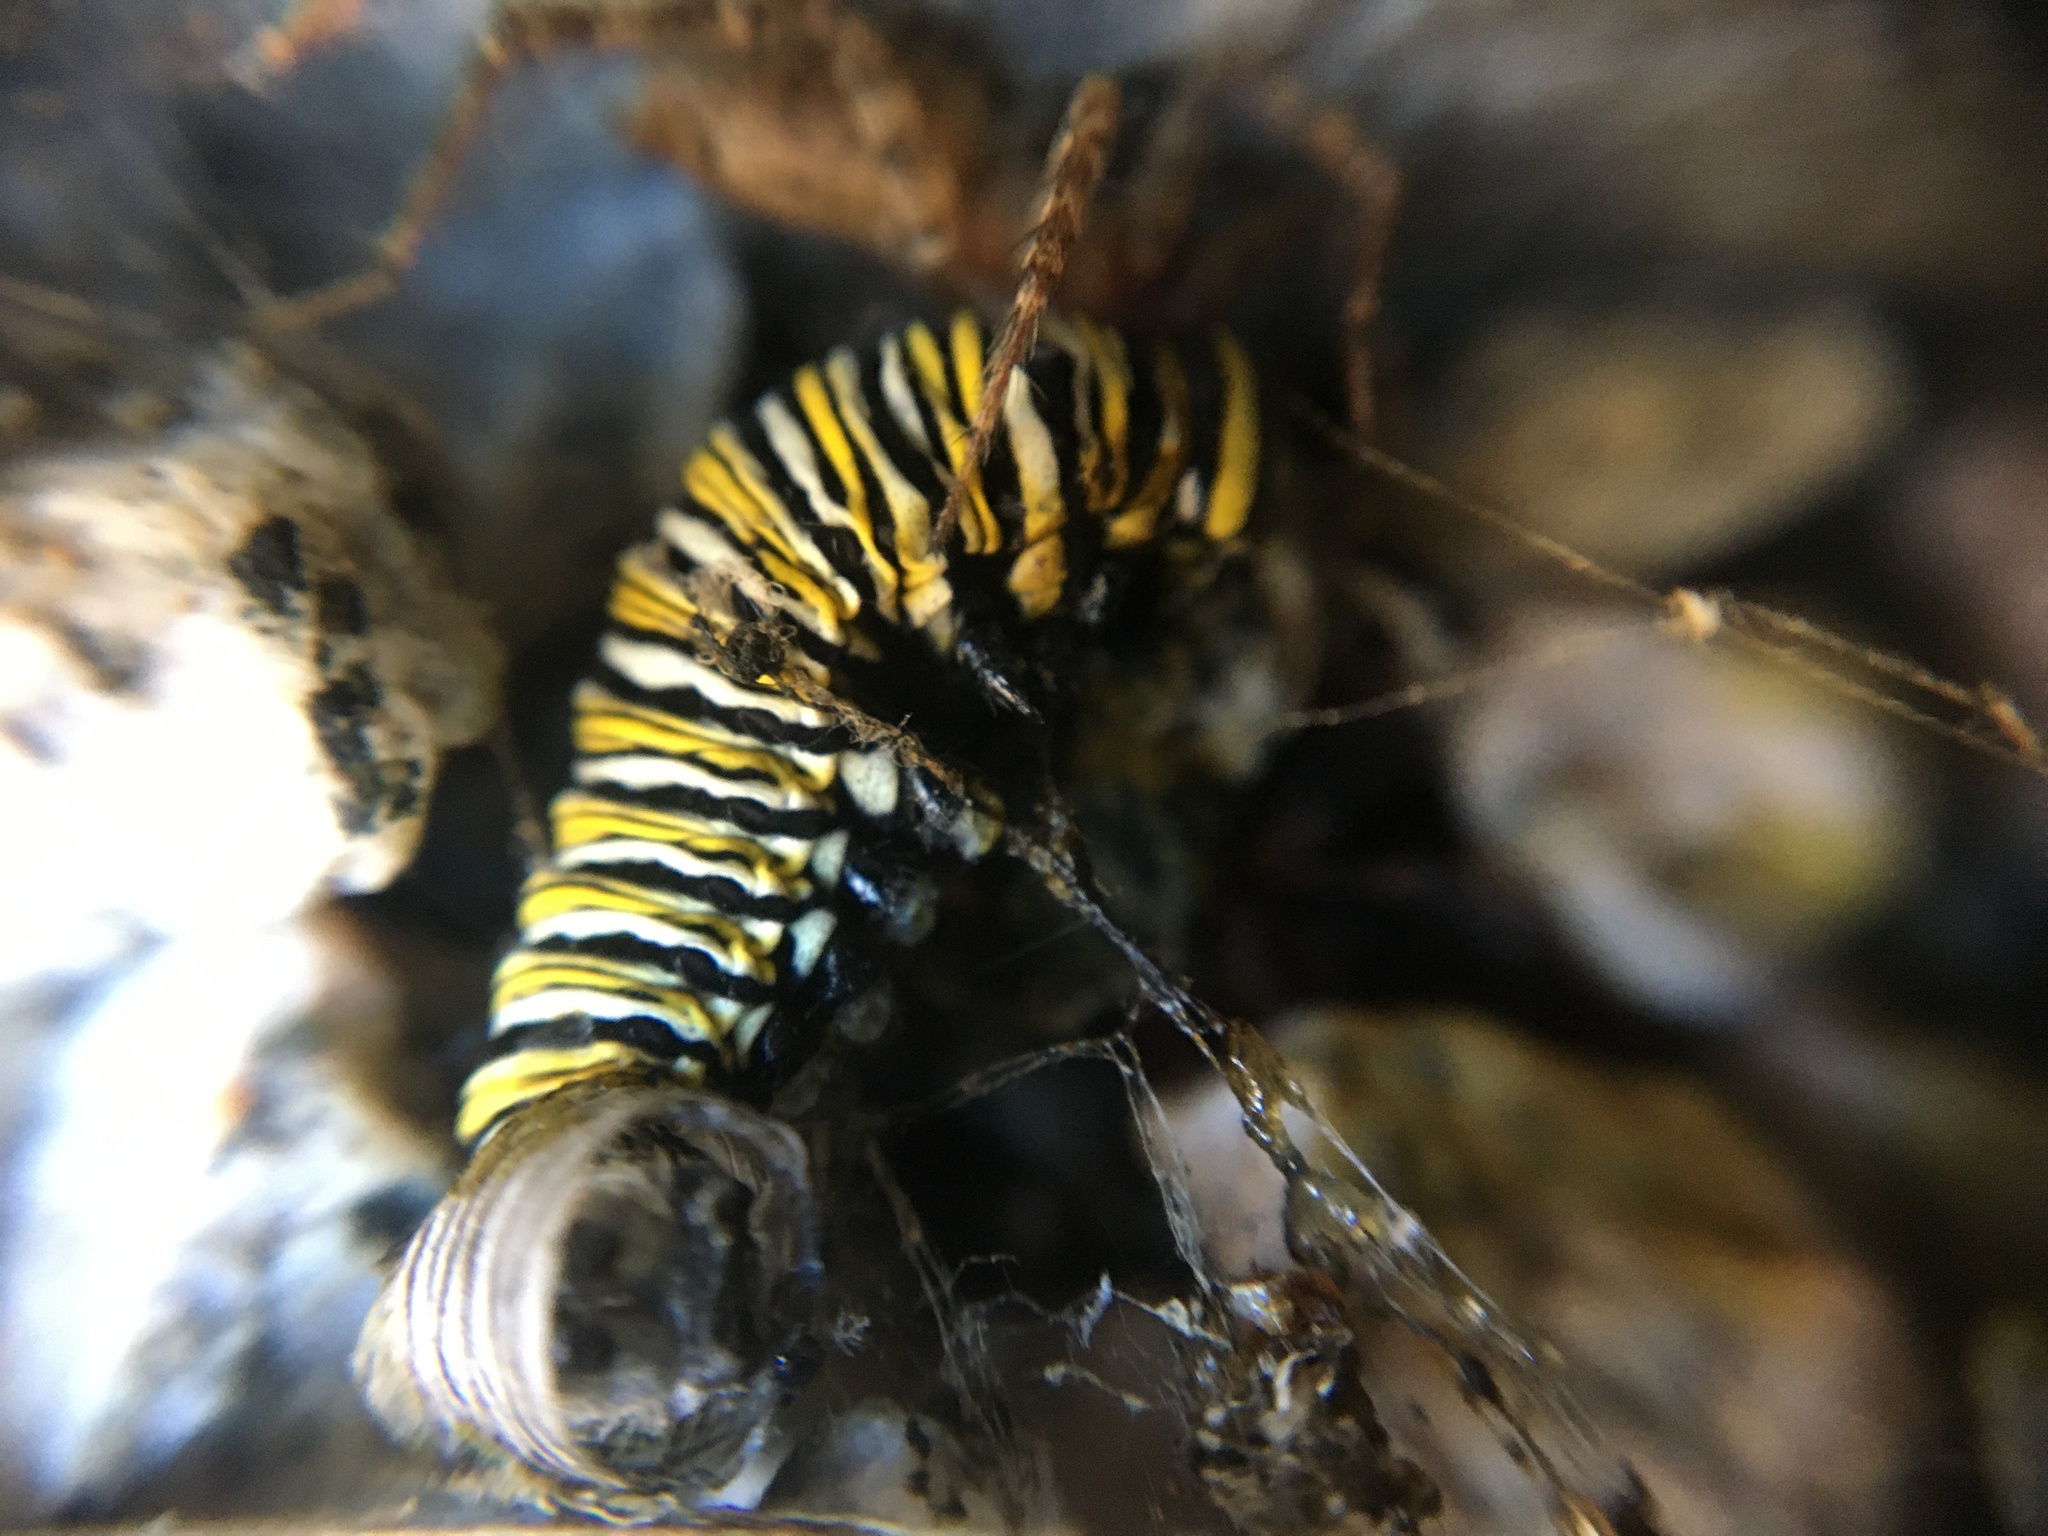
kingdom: Animalia
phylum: Arthropoda
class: Insecta
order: Lepidoptera
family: Nymphalidae
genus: Danaus
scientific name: Danaus plexippus
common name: Monarch
